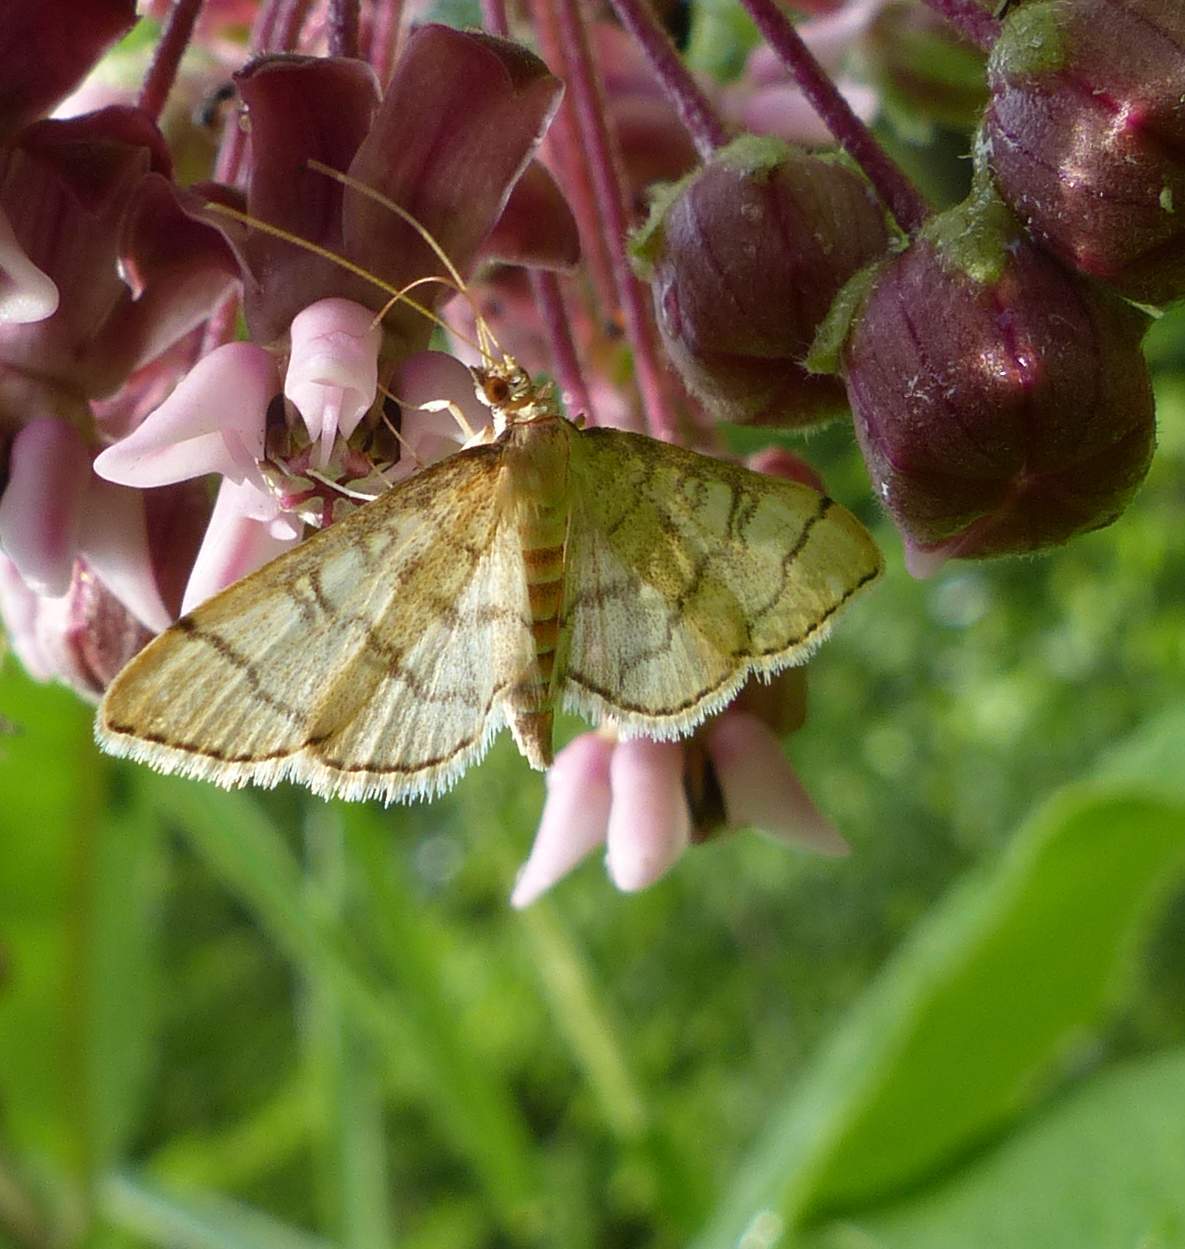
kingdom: Animalia
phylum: Arthropoda
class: Insecta
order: Lepidoptera
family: Crambidae
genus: Lamprosema
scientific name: Lamprosema Blepharomastix ranalis
